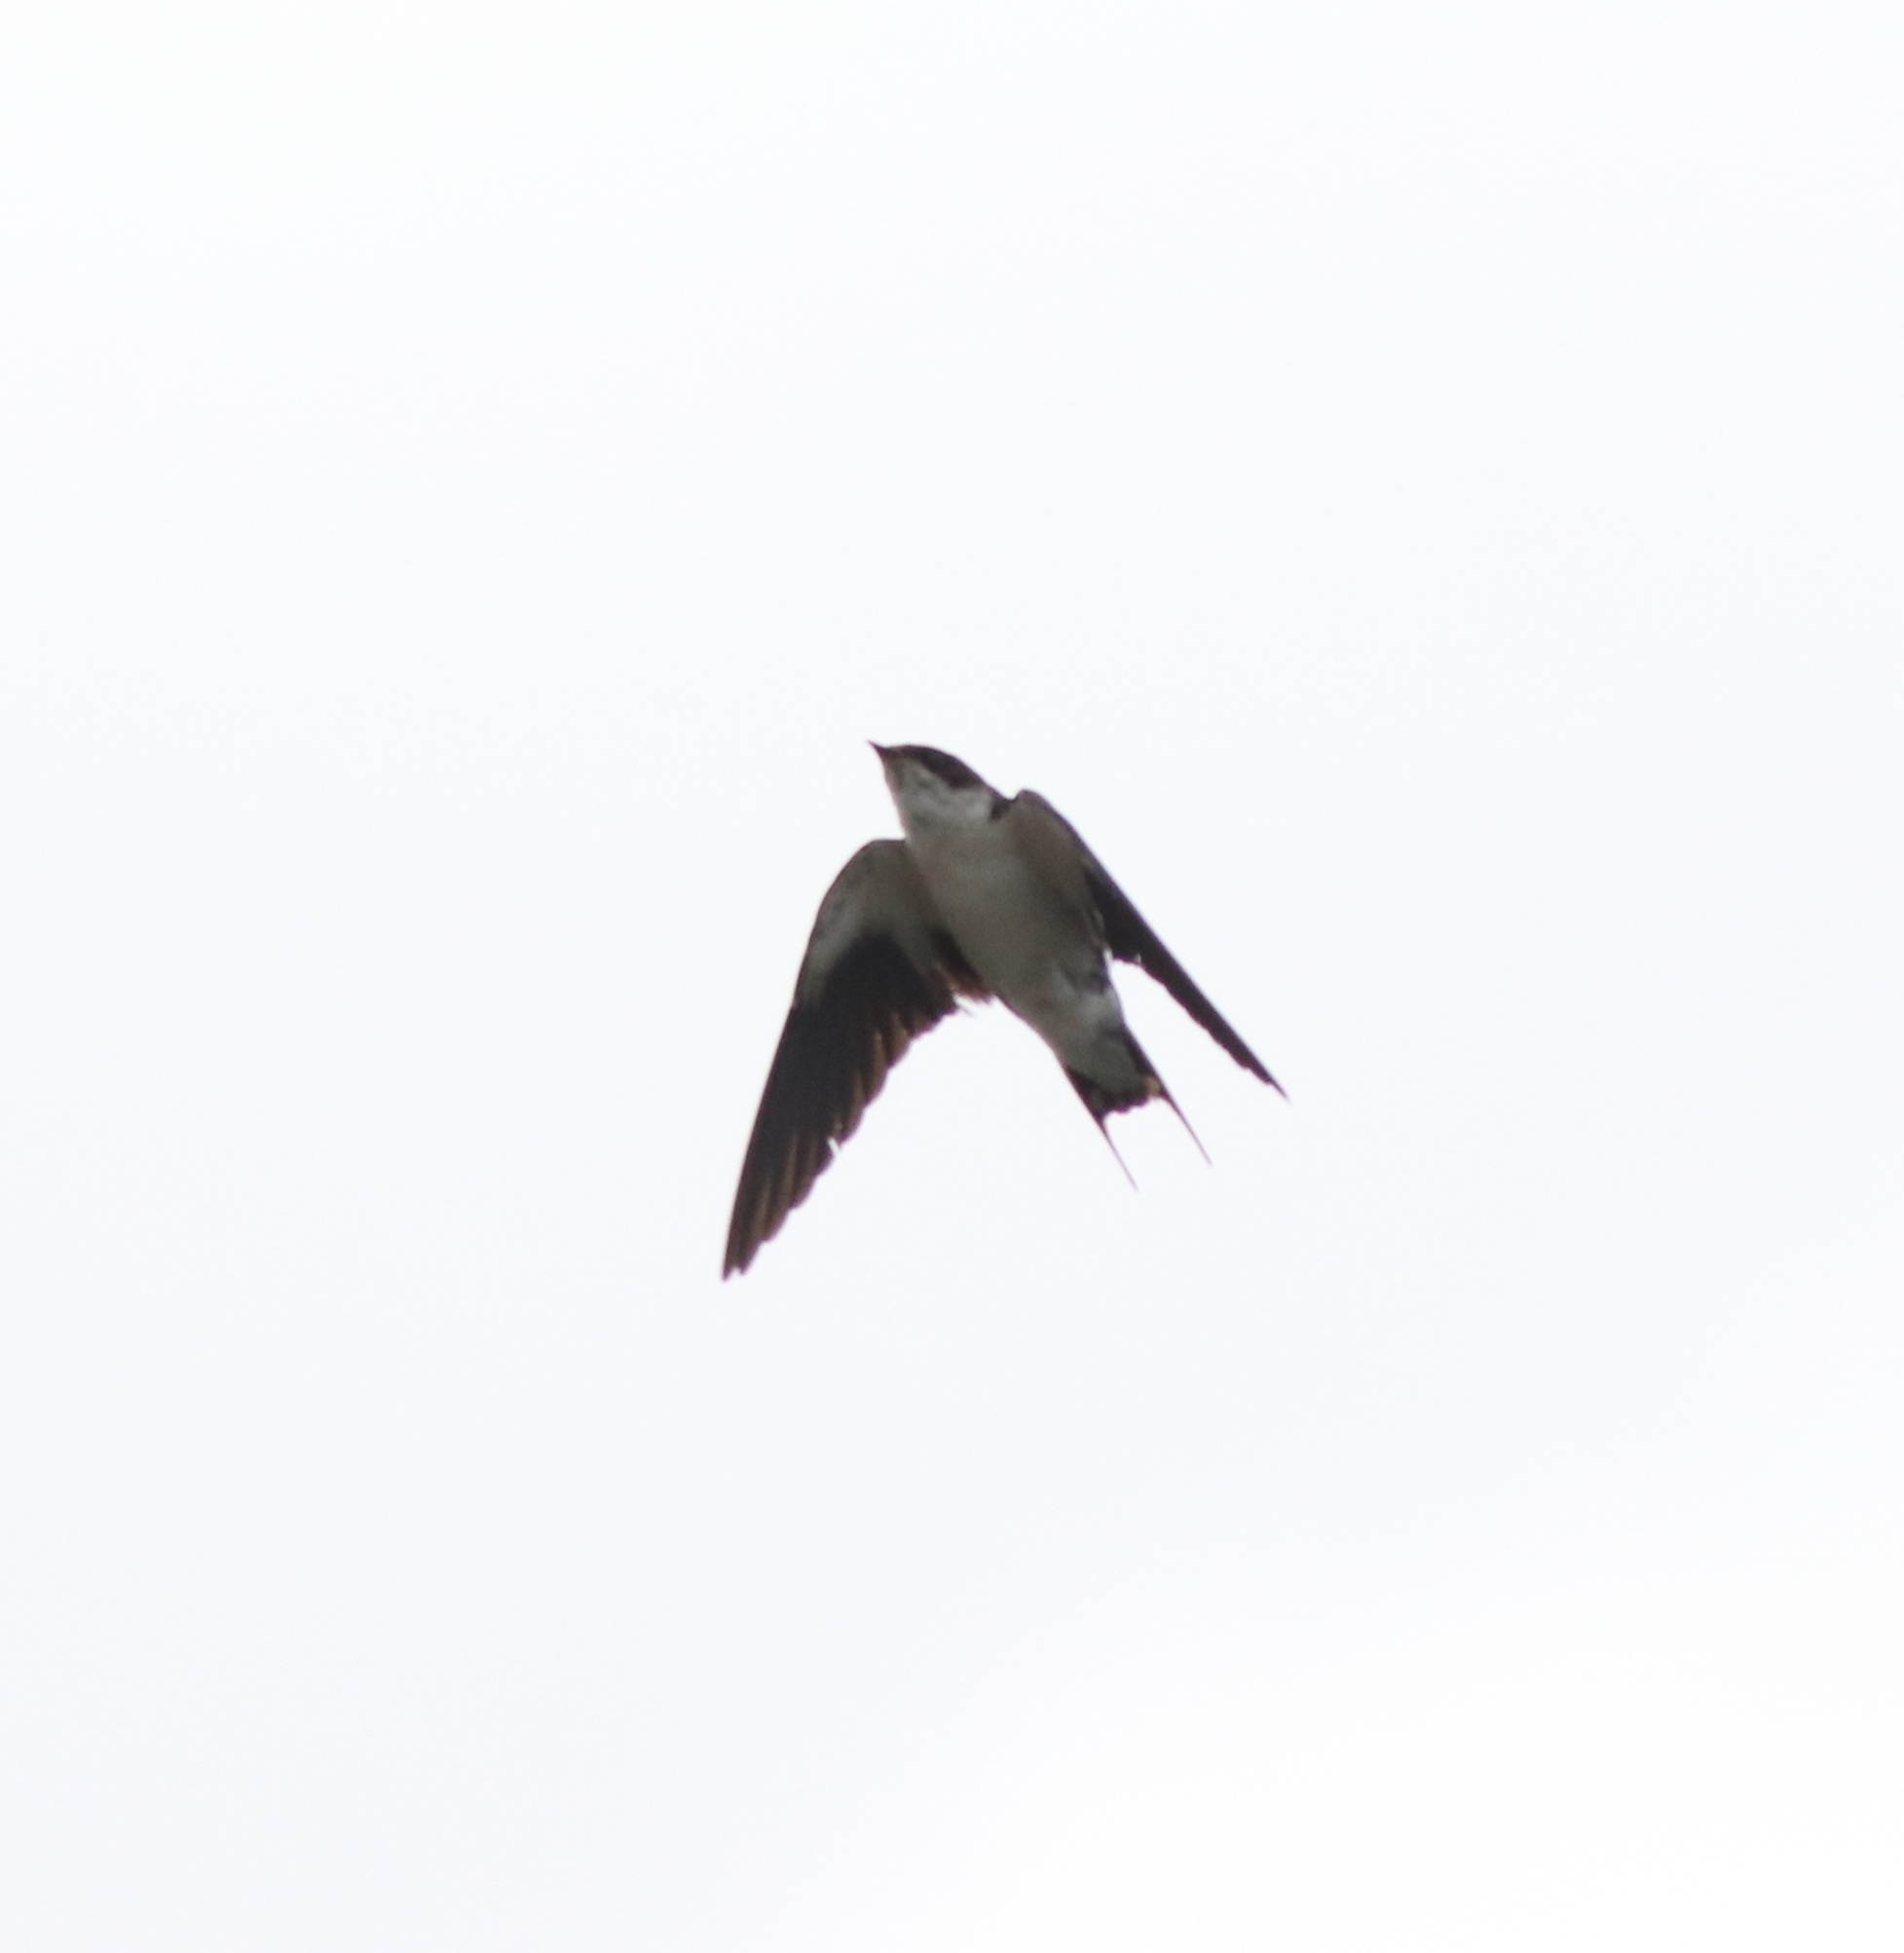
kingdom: Animalia
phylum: Chordata
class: Aves
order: Passeriformes
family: Hirundinidae
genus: Hirundo
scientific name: Hirundo smithii
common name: Wire-tailed swallow
